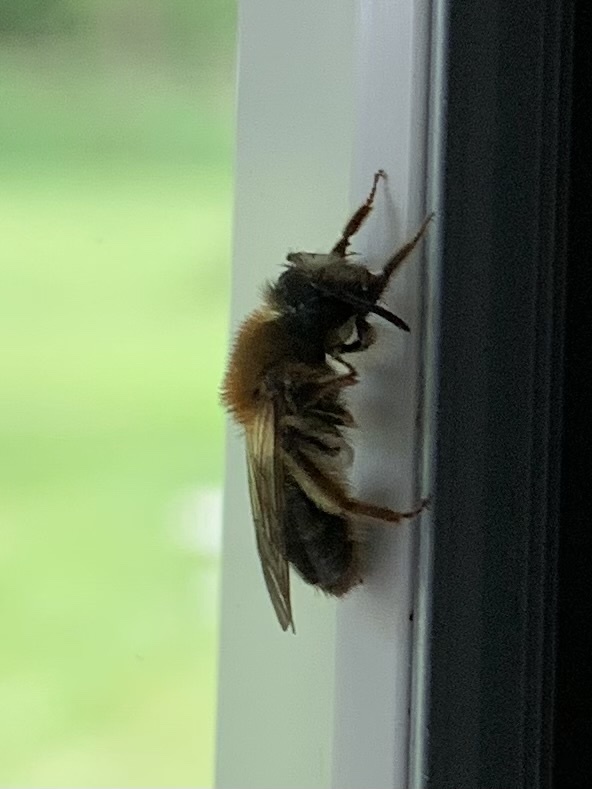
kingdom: Animalia
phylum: Arthropoda
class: Insecta
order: Hymenoptera
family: Andrenidae
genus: Andrena
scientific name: Andrena helvola
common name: Coppice mining bee
